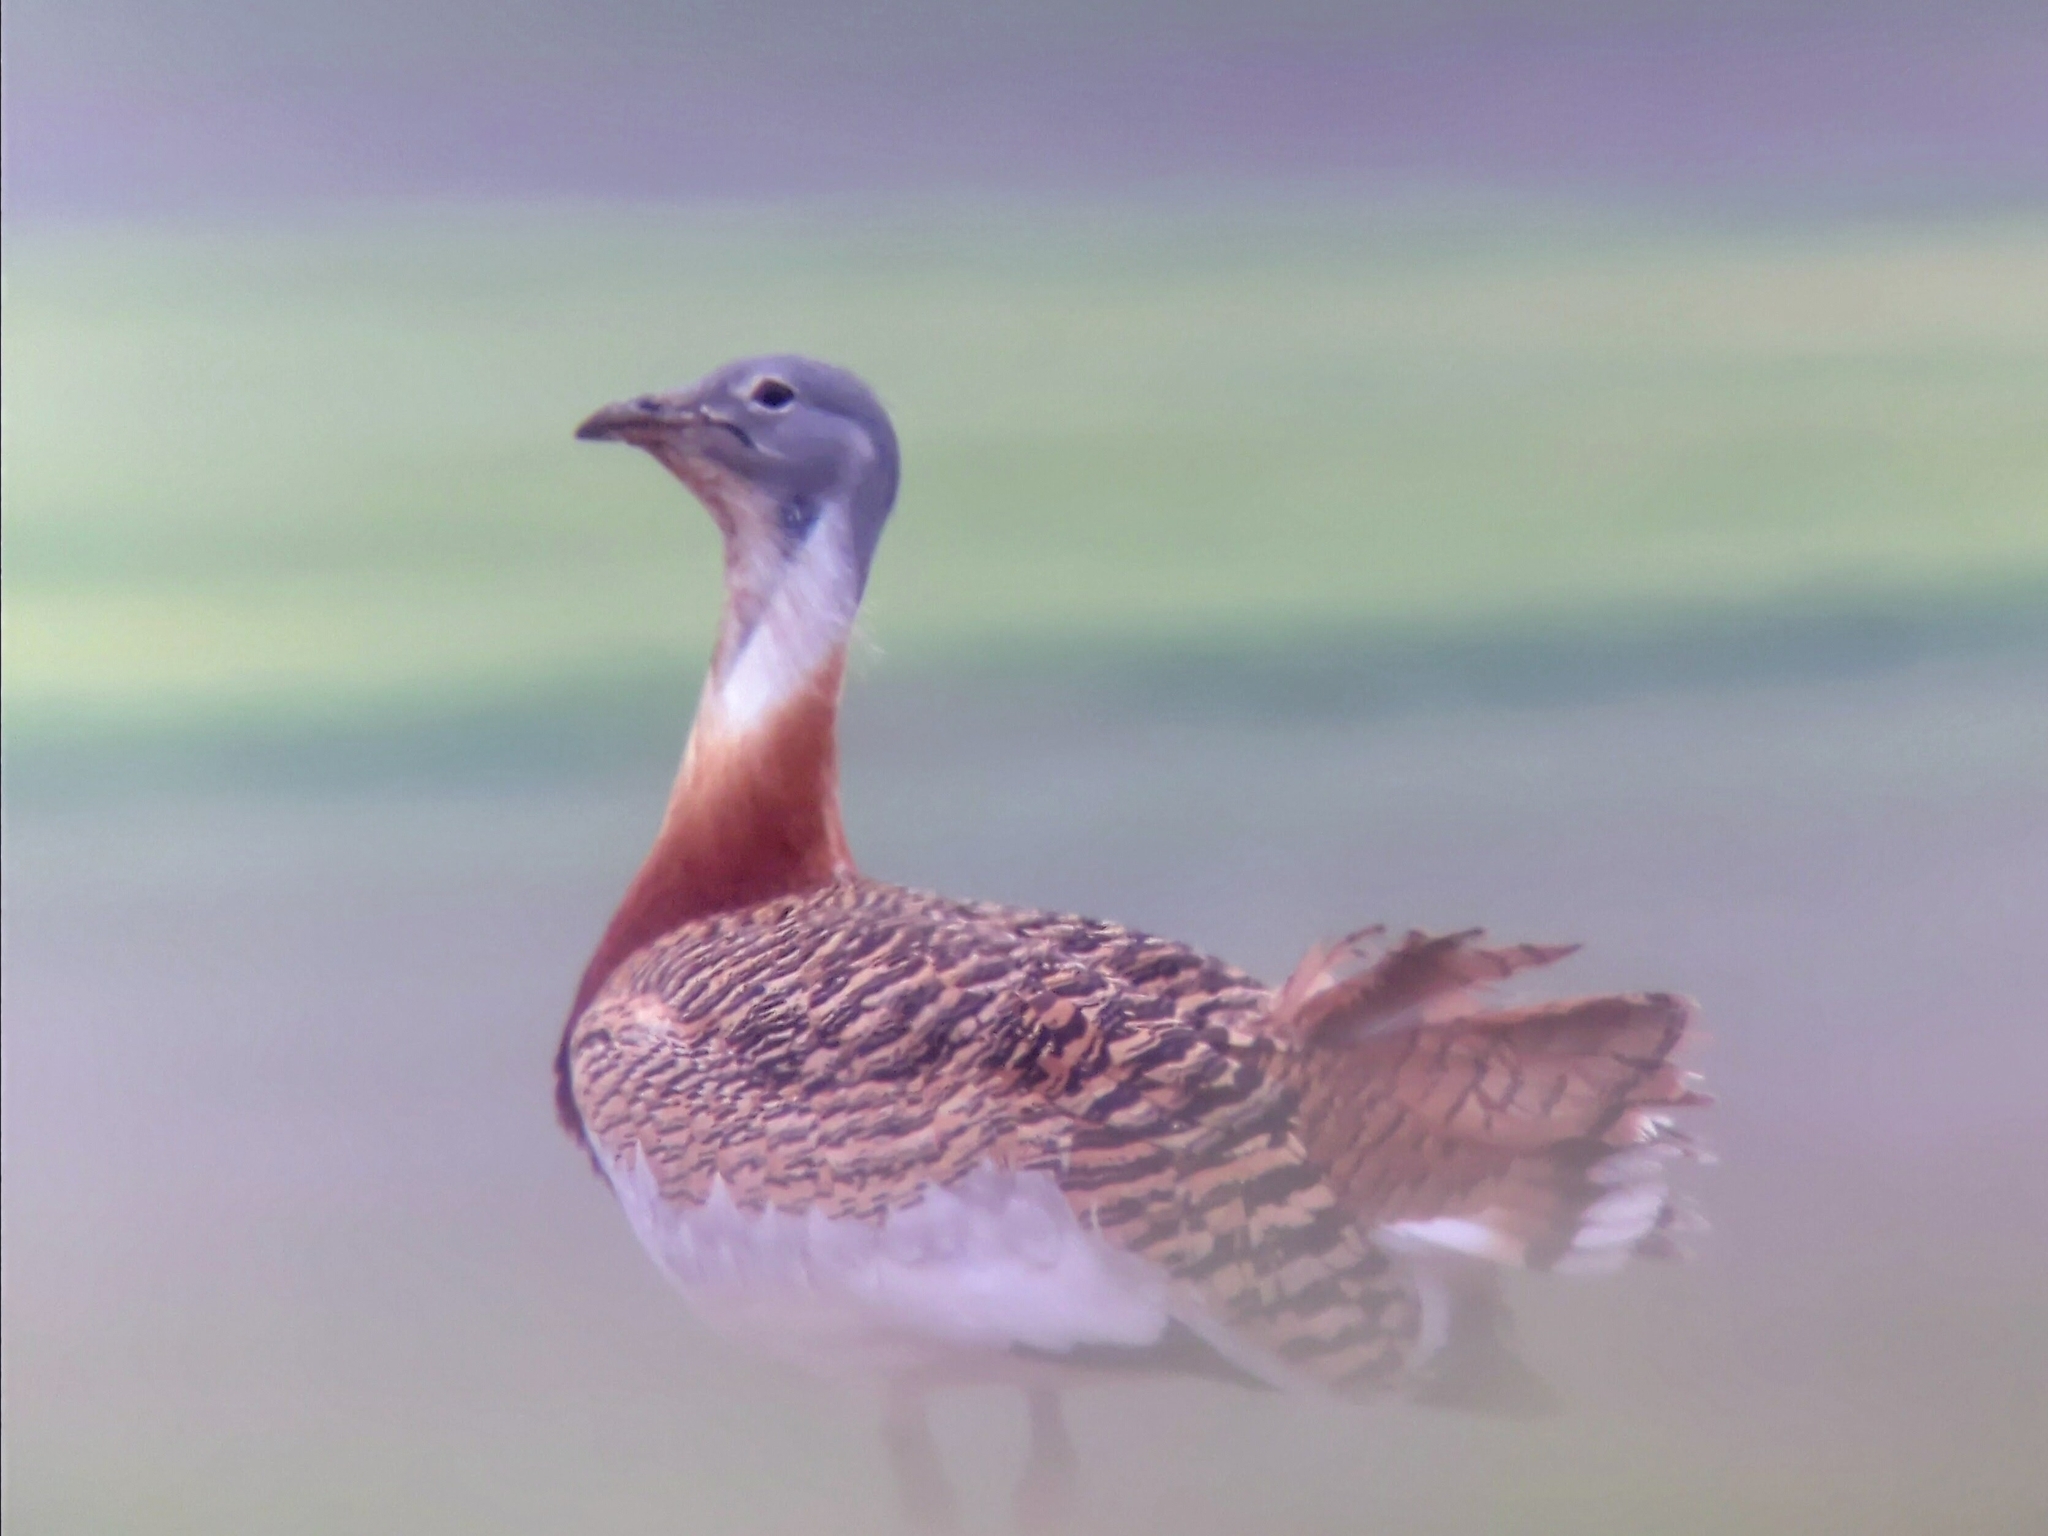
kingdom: Animalia
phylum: Chordata
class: Aves
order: Otidiformes
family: Otididae
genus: Otis
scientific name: Otis tarda
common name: Great bustard
